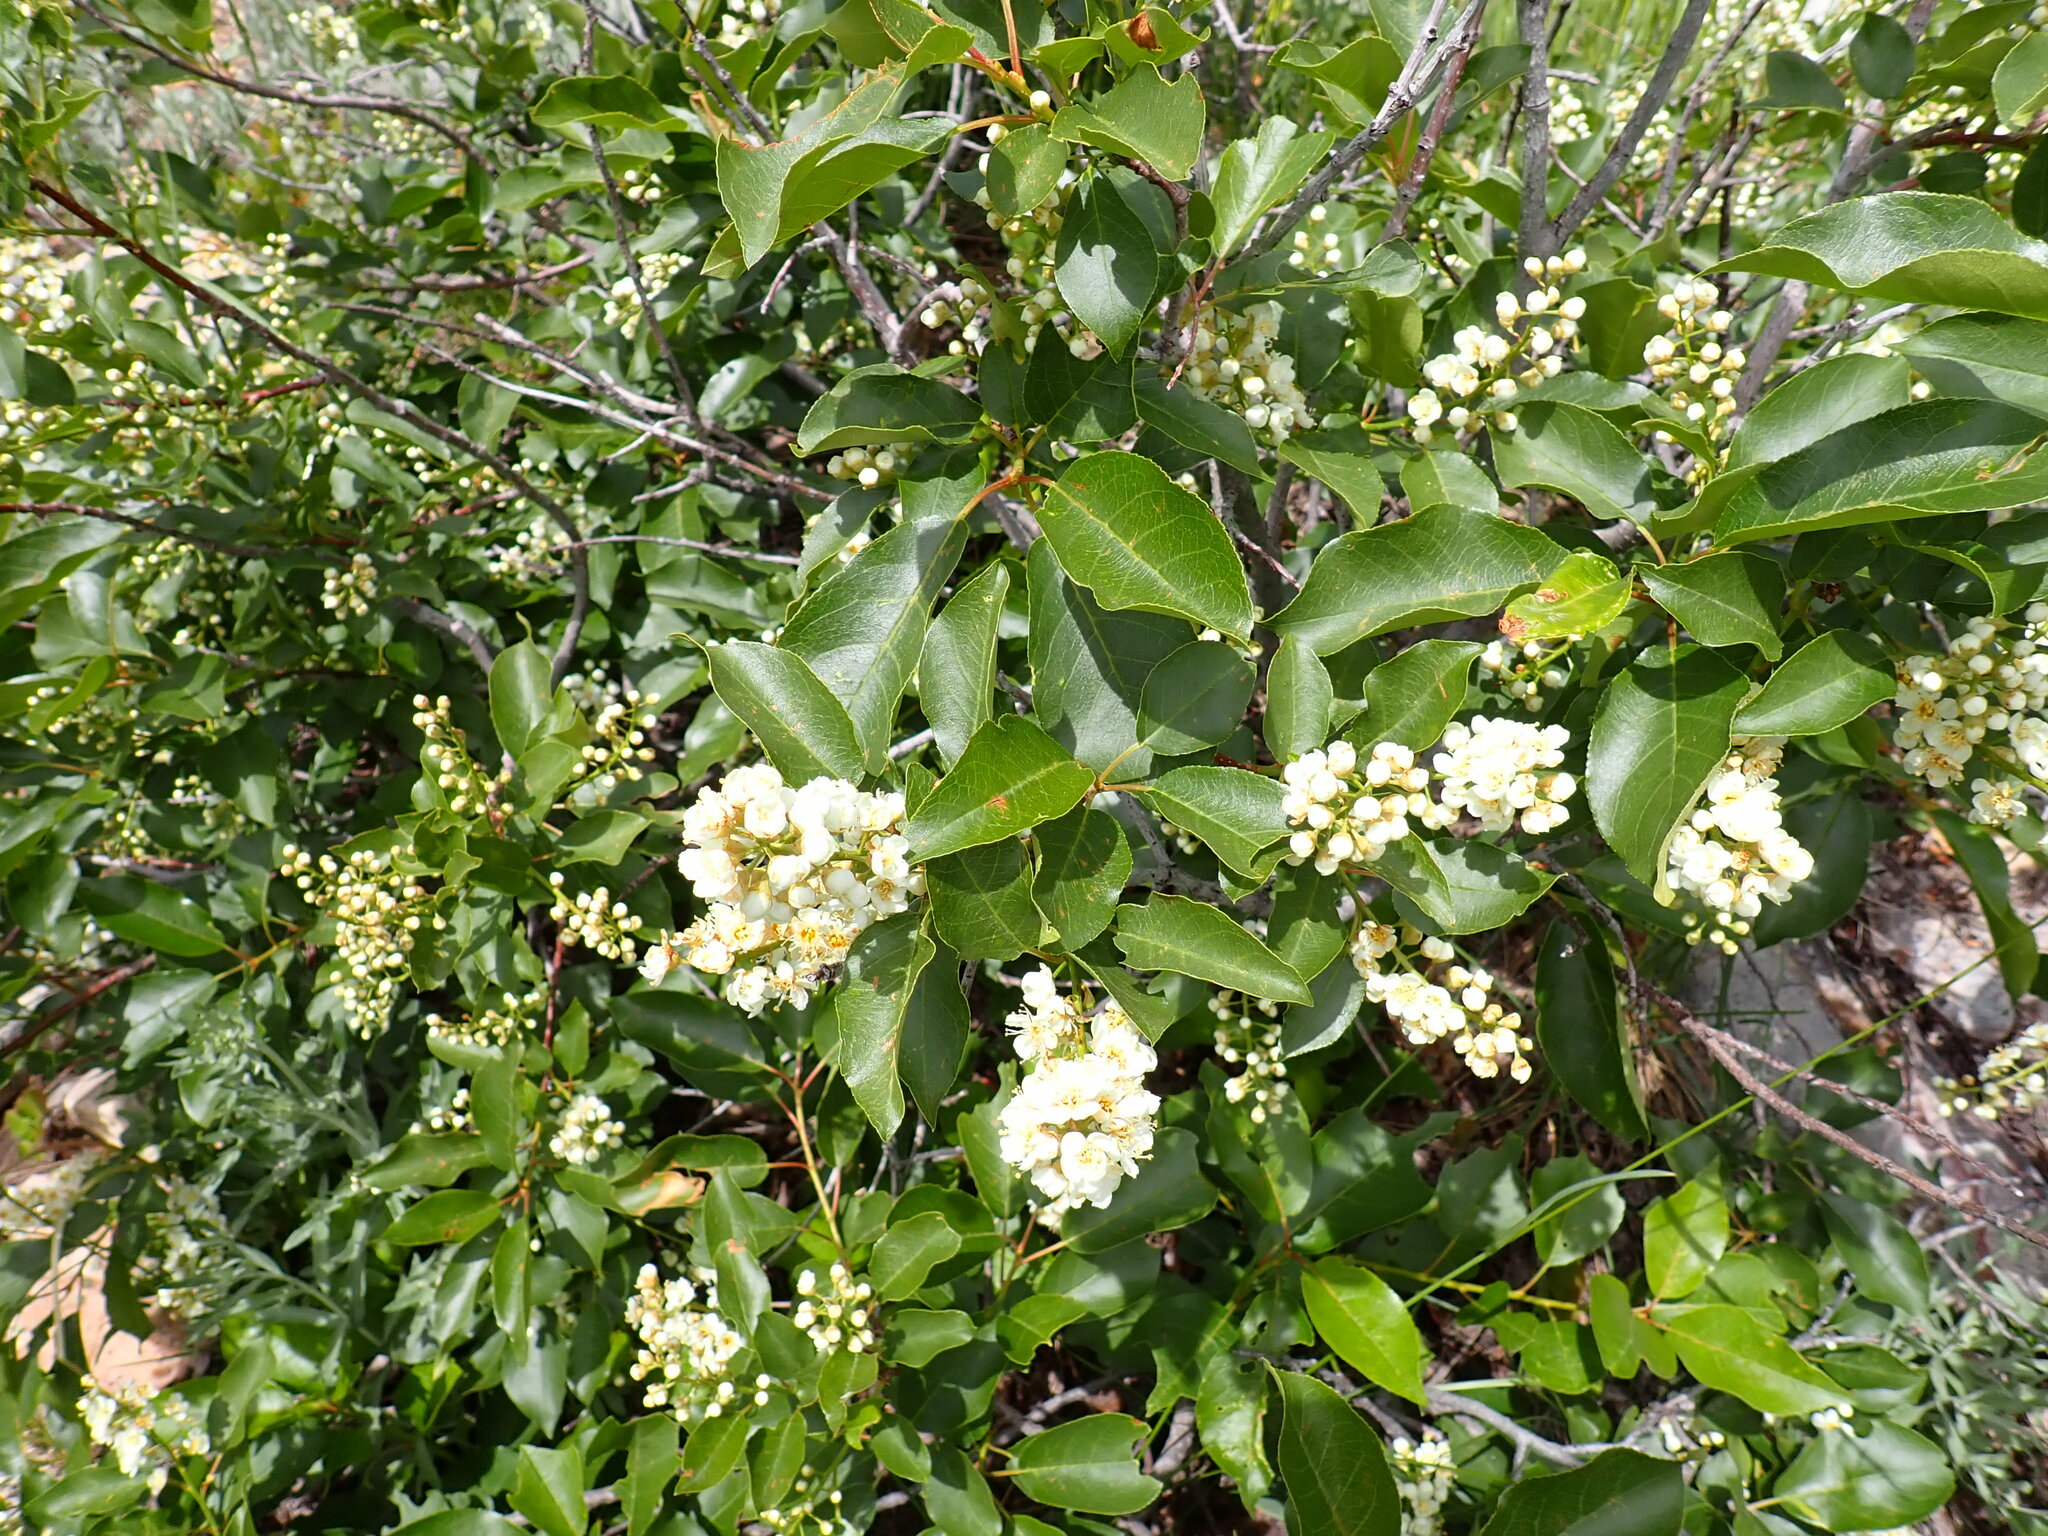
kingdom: Plantae
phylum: Tracheophyta
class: Magnoliopsida
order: Rosales
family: Rosaceae
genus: Prunus
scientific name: Prunus virginiana
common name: Chokecherry
